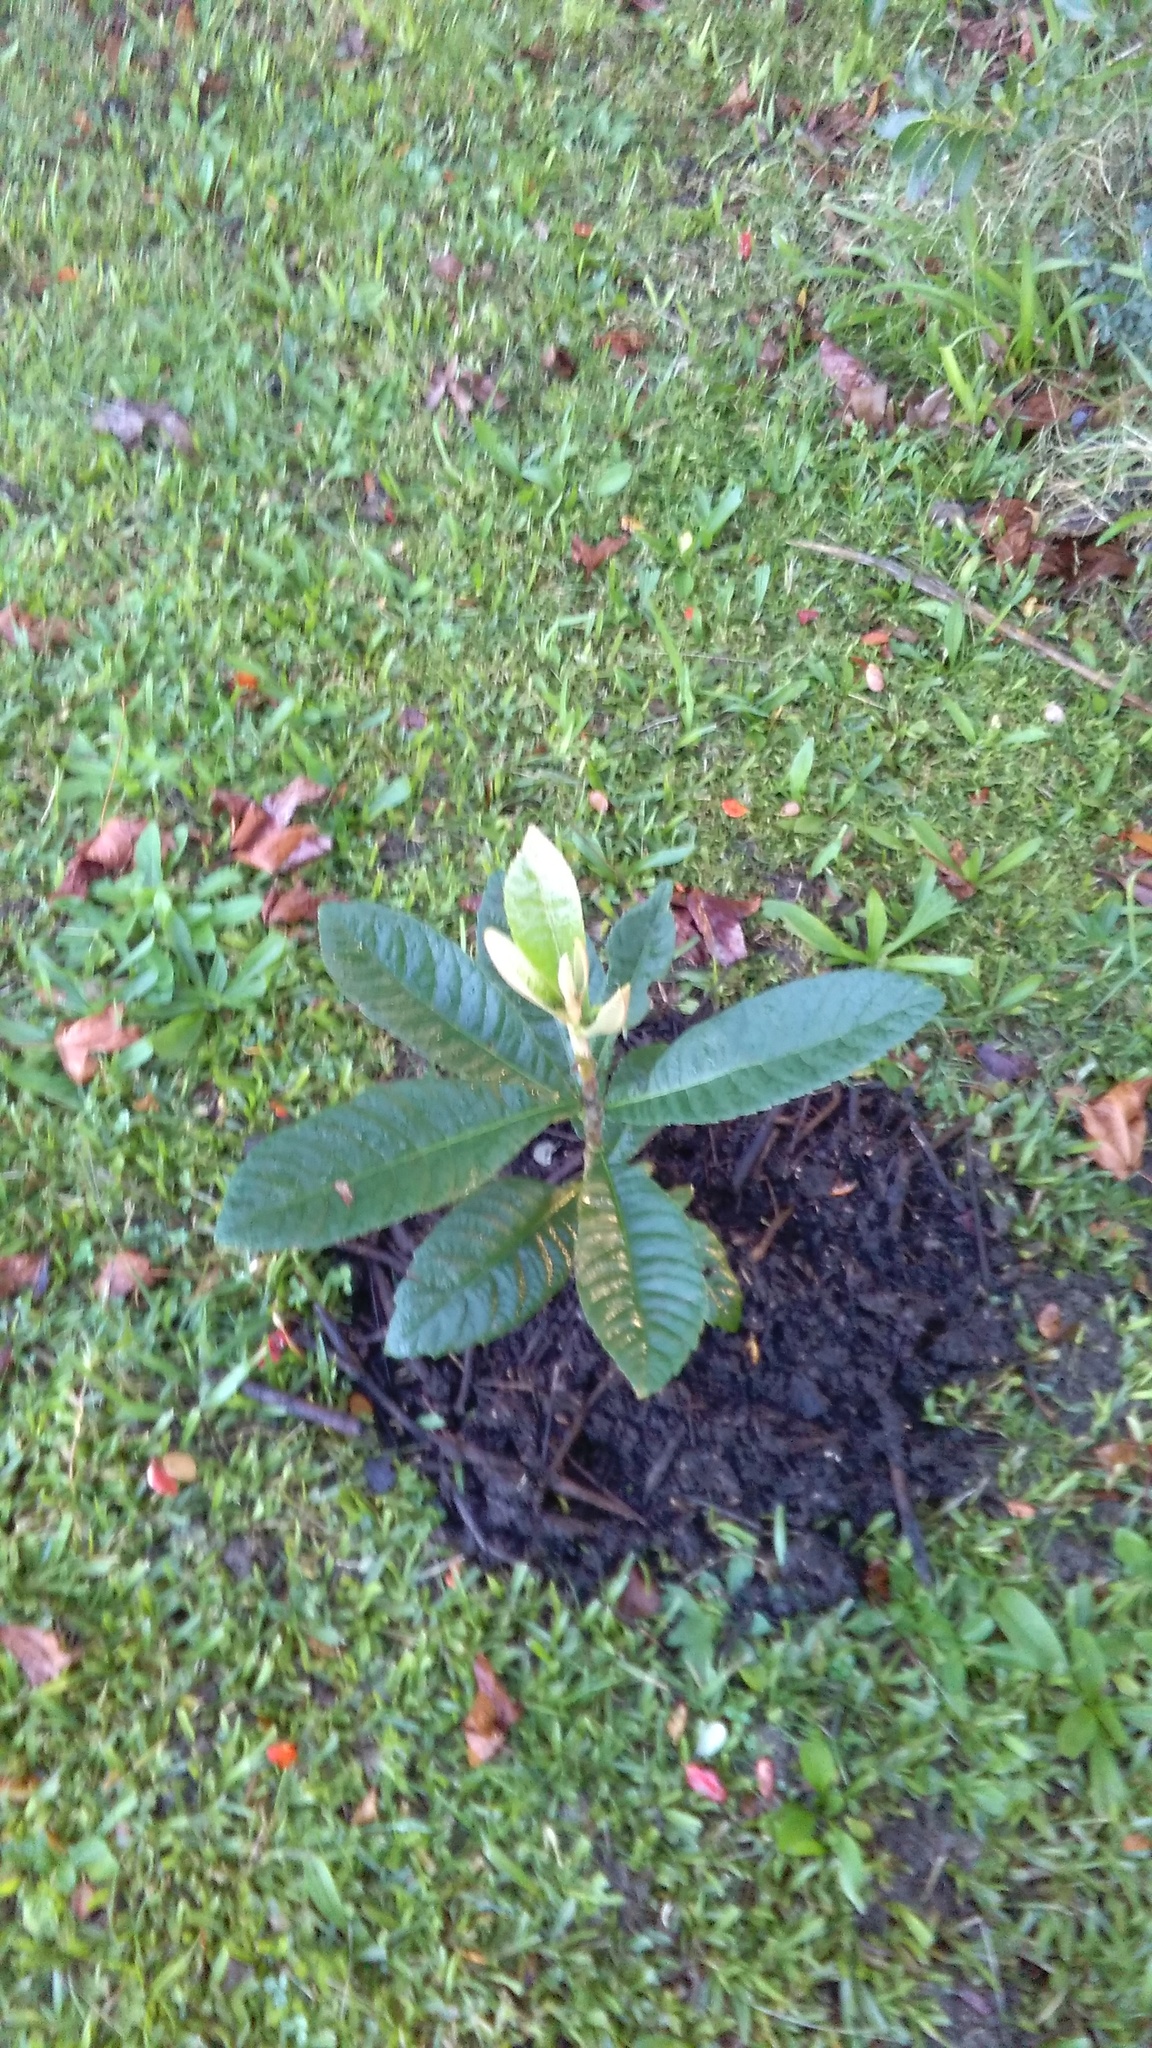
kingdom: Plantae
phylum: Tracheophyta
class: Magnoliopsida
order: Rosales
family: Rosaceae
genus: Rhaphiolepis
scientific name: Rhaphiolepis bibas
